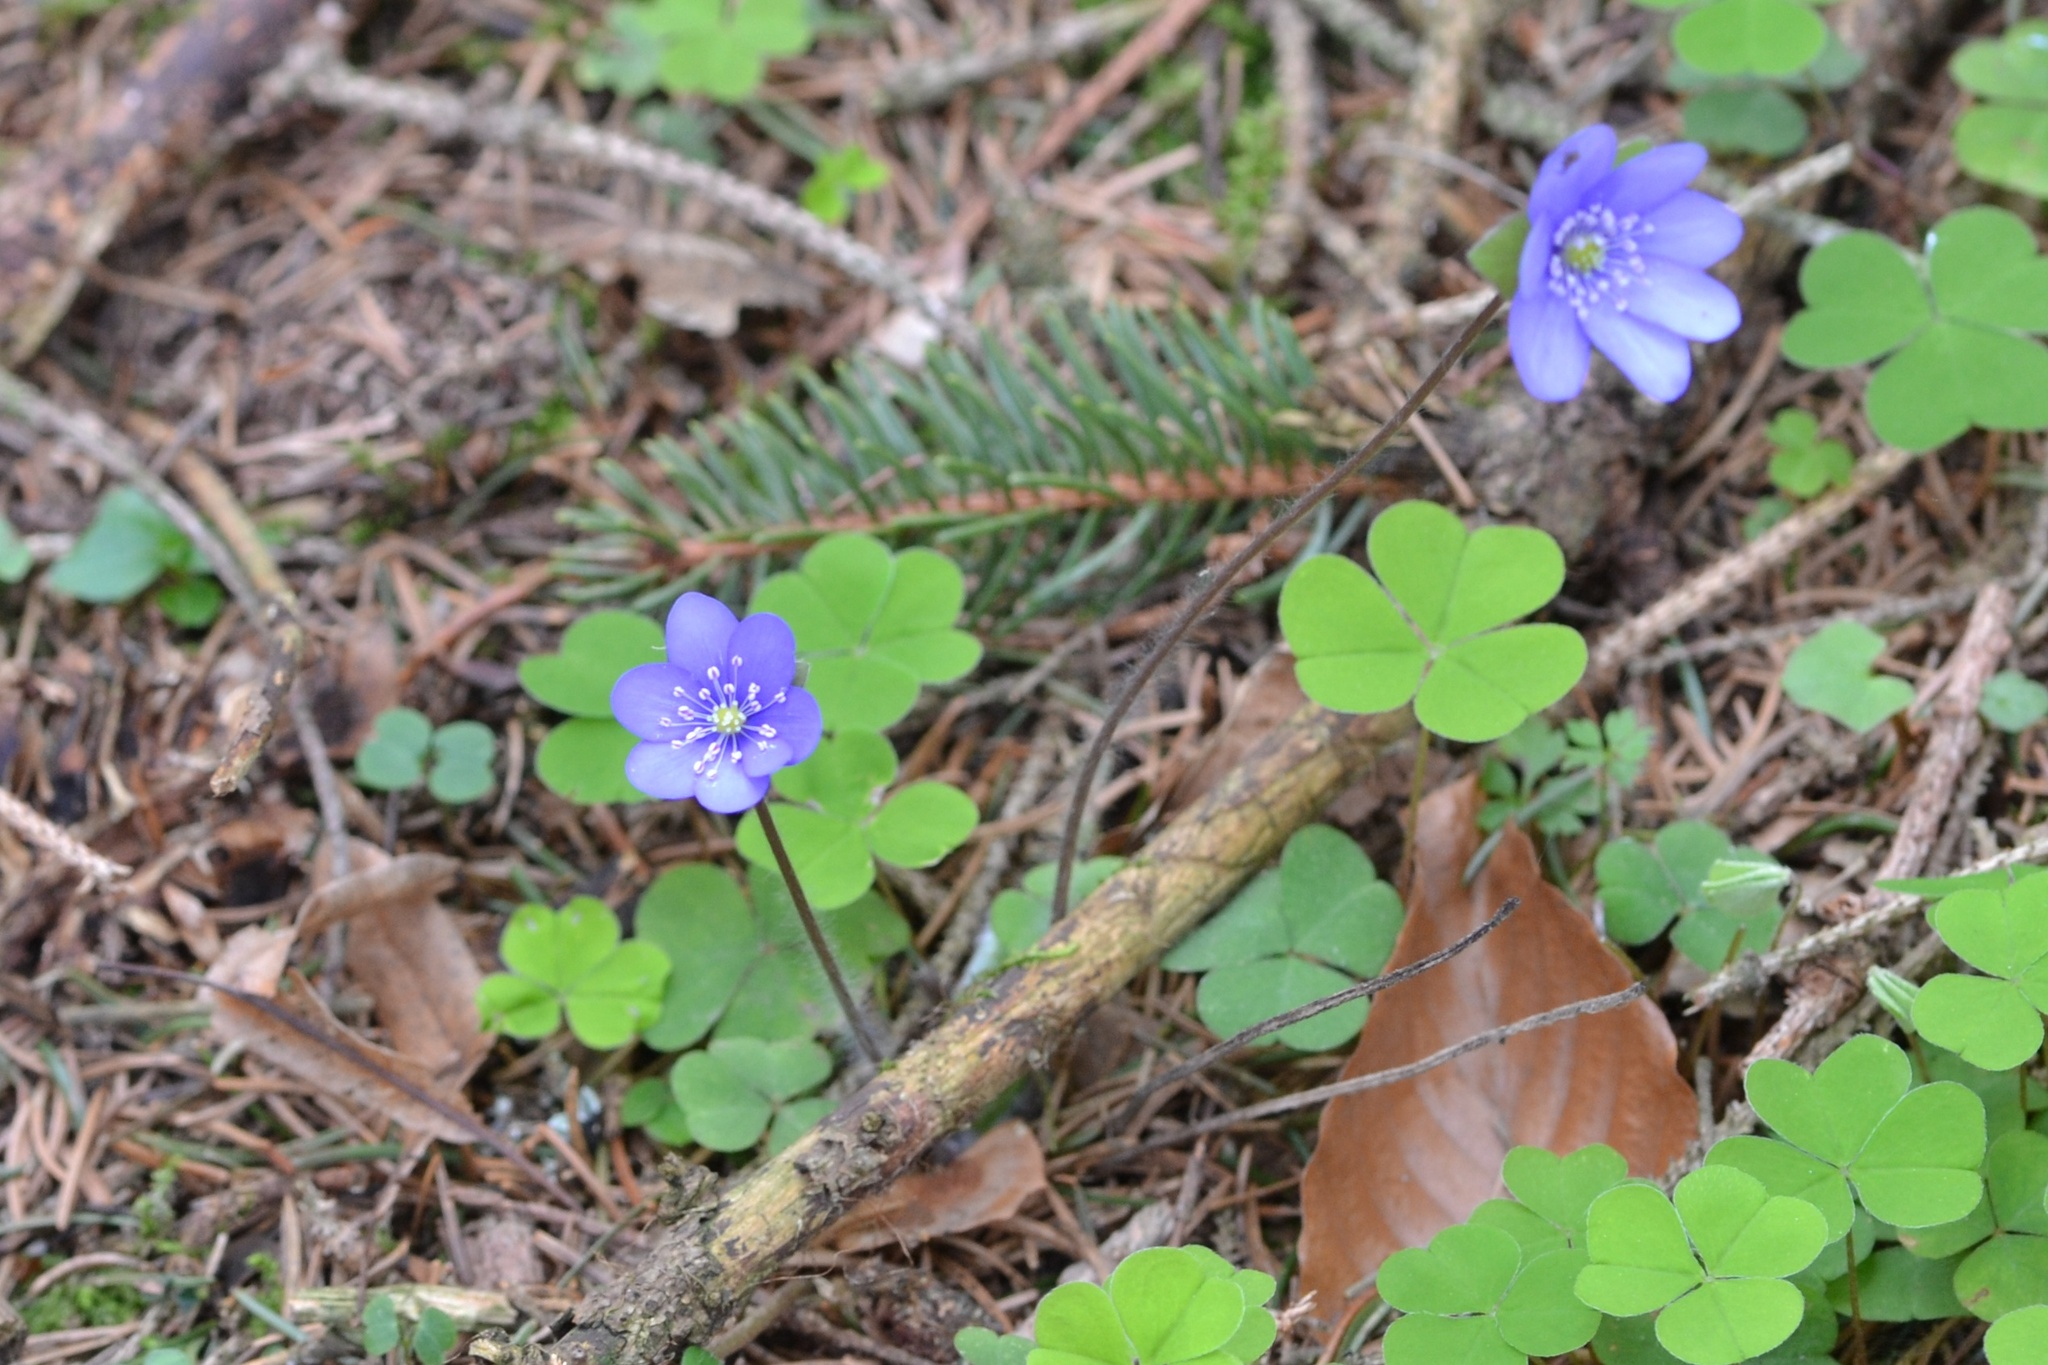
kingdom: Plantae
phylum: Tracheophyta
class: Magnoliopsida
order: Ranunculales
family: Ranunculaceae
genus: Hepatica
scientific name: Hepatica nobilis
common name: Liverleaf
